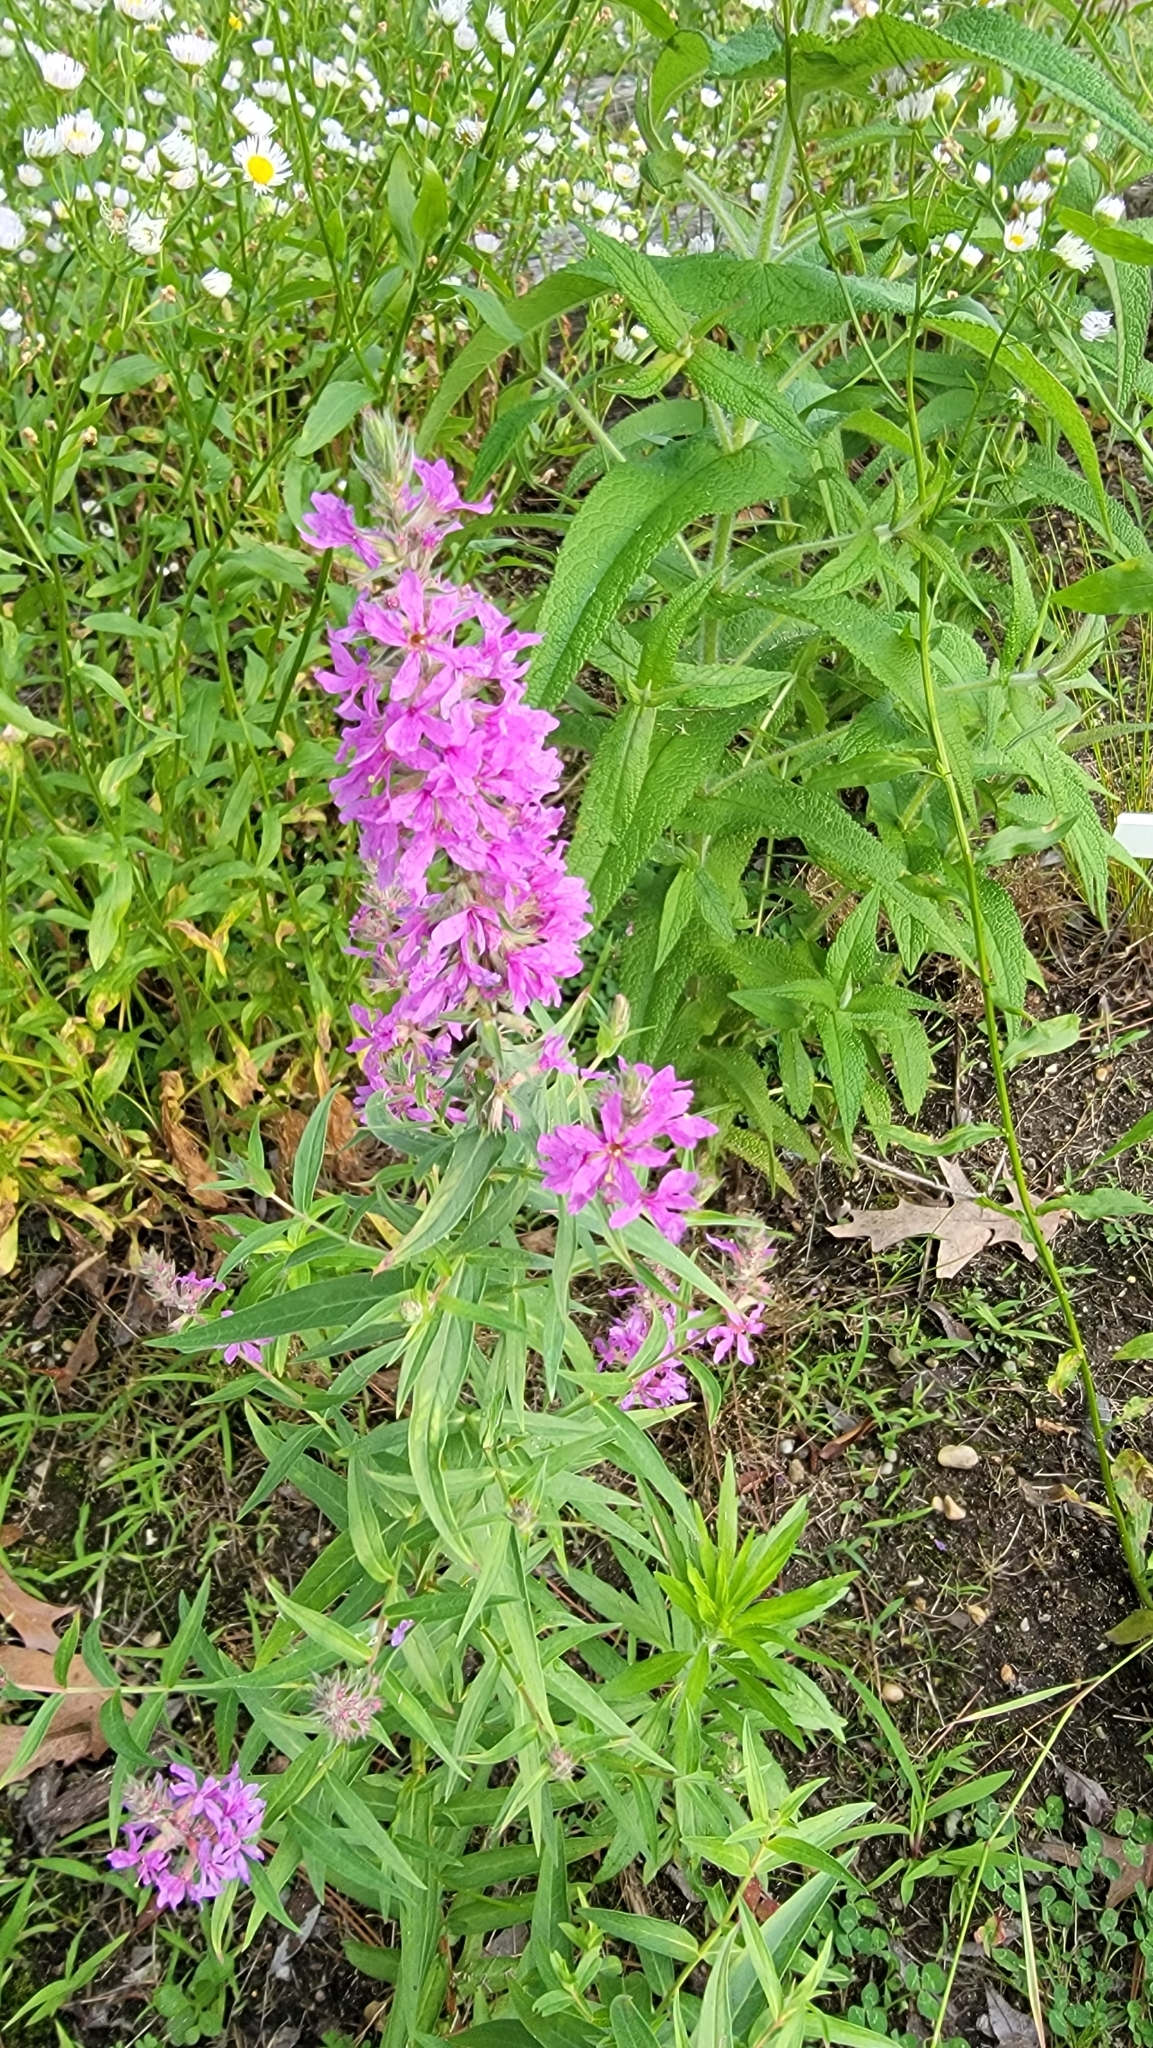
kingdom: Plantae
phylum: Tracheophyta
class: Magnoliopsida
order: Myrtales
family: Lythraceae
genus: Lythrum
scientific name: Lythrum salicaria
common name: Purple loosestrife
